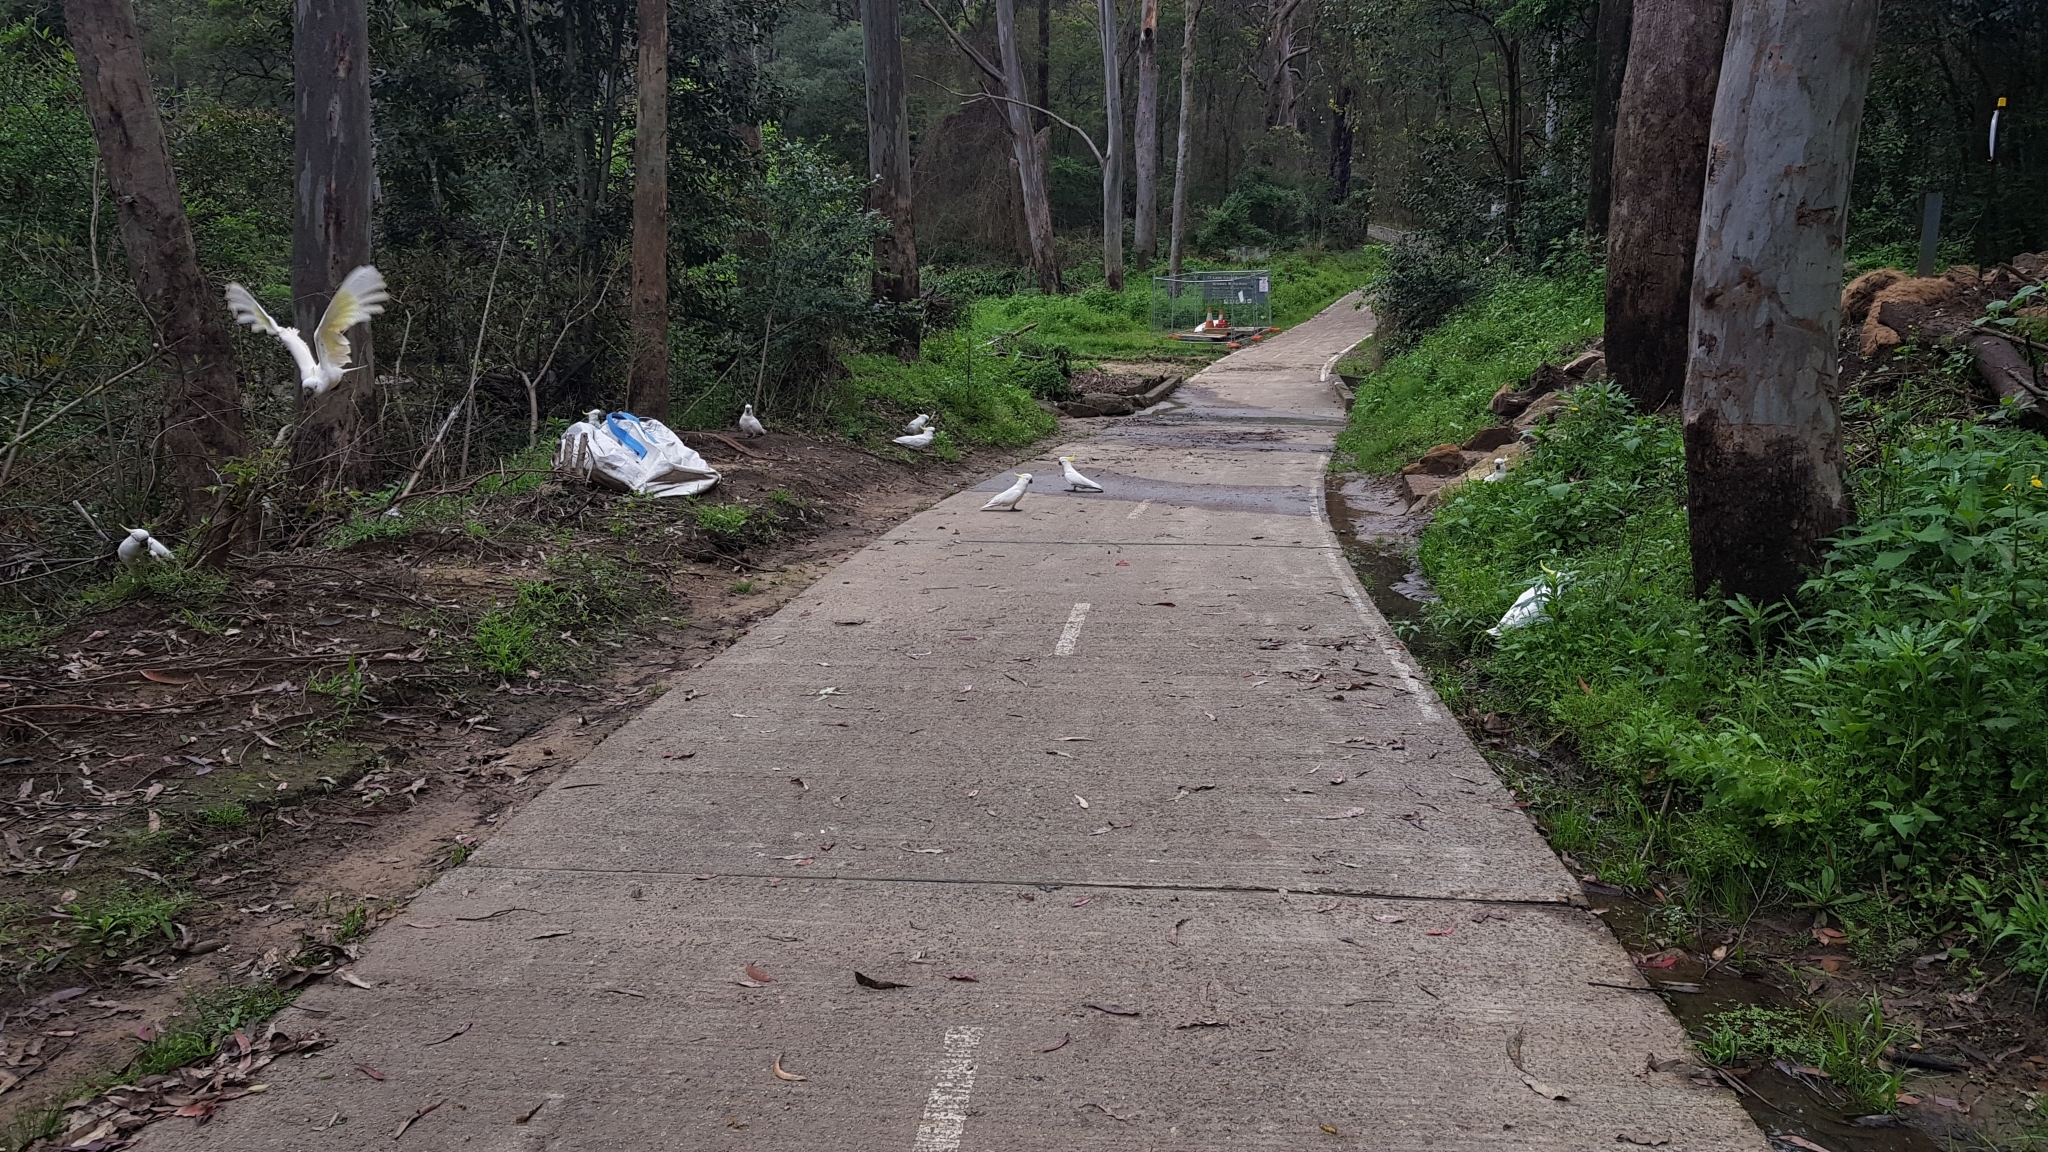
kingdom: Animalia
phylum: Chordata
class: Aves
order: Psittaciformes
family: Psittacidae
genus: Cacatua
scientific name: Cacatua galerita
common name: Sulphur-crested cockatoo
